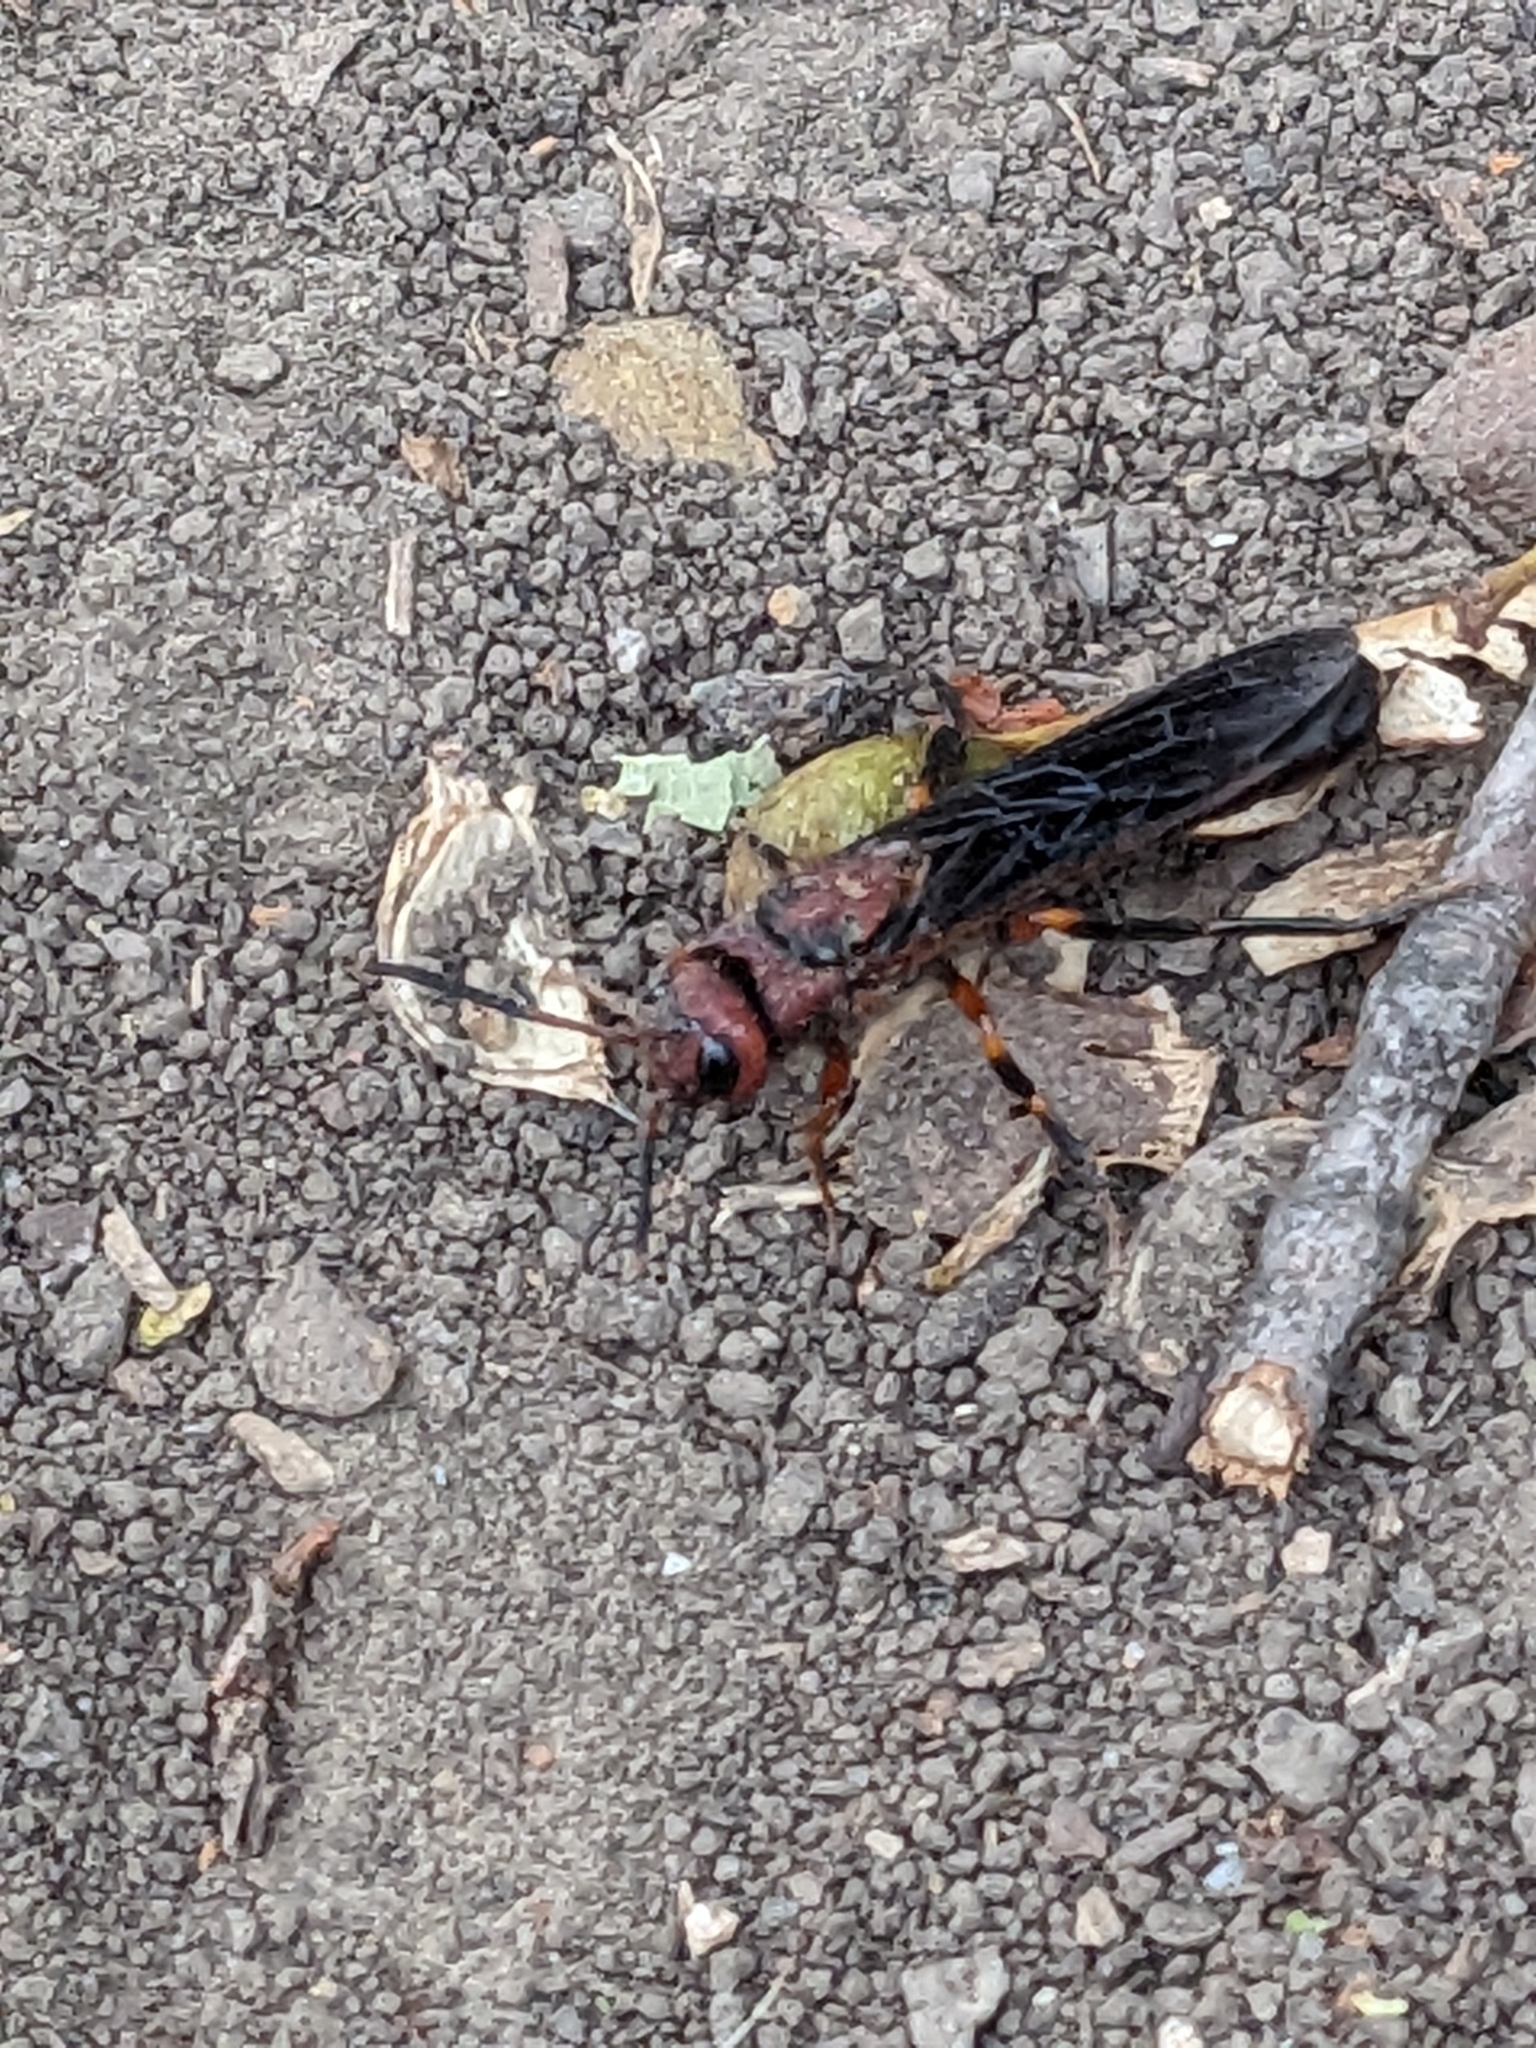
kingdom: Animalia
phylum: Arthropoda
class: Insecta
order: Hymenoptera
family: Siricidae
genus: Tremex
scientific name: Tremex columba
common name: Wasp
